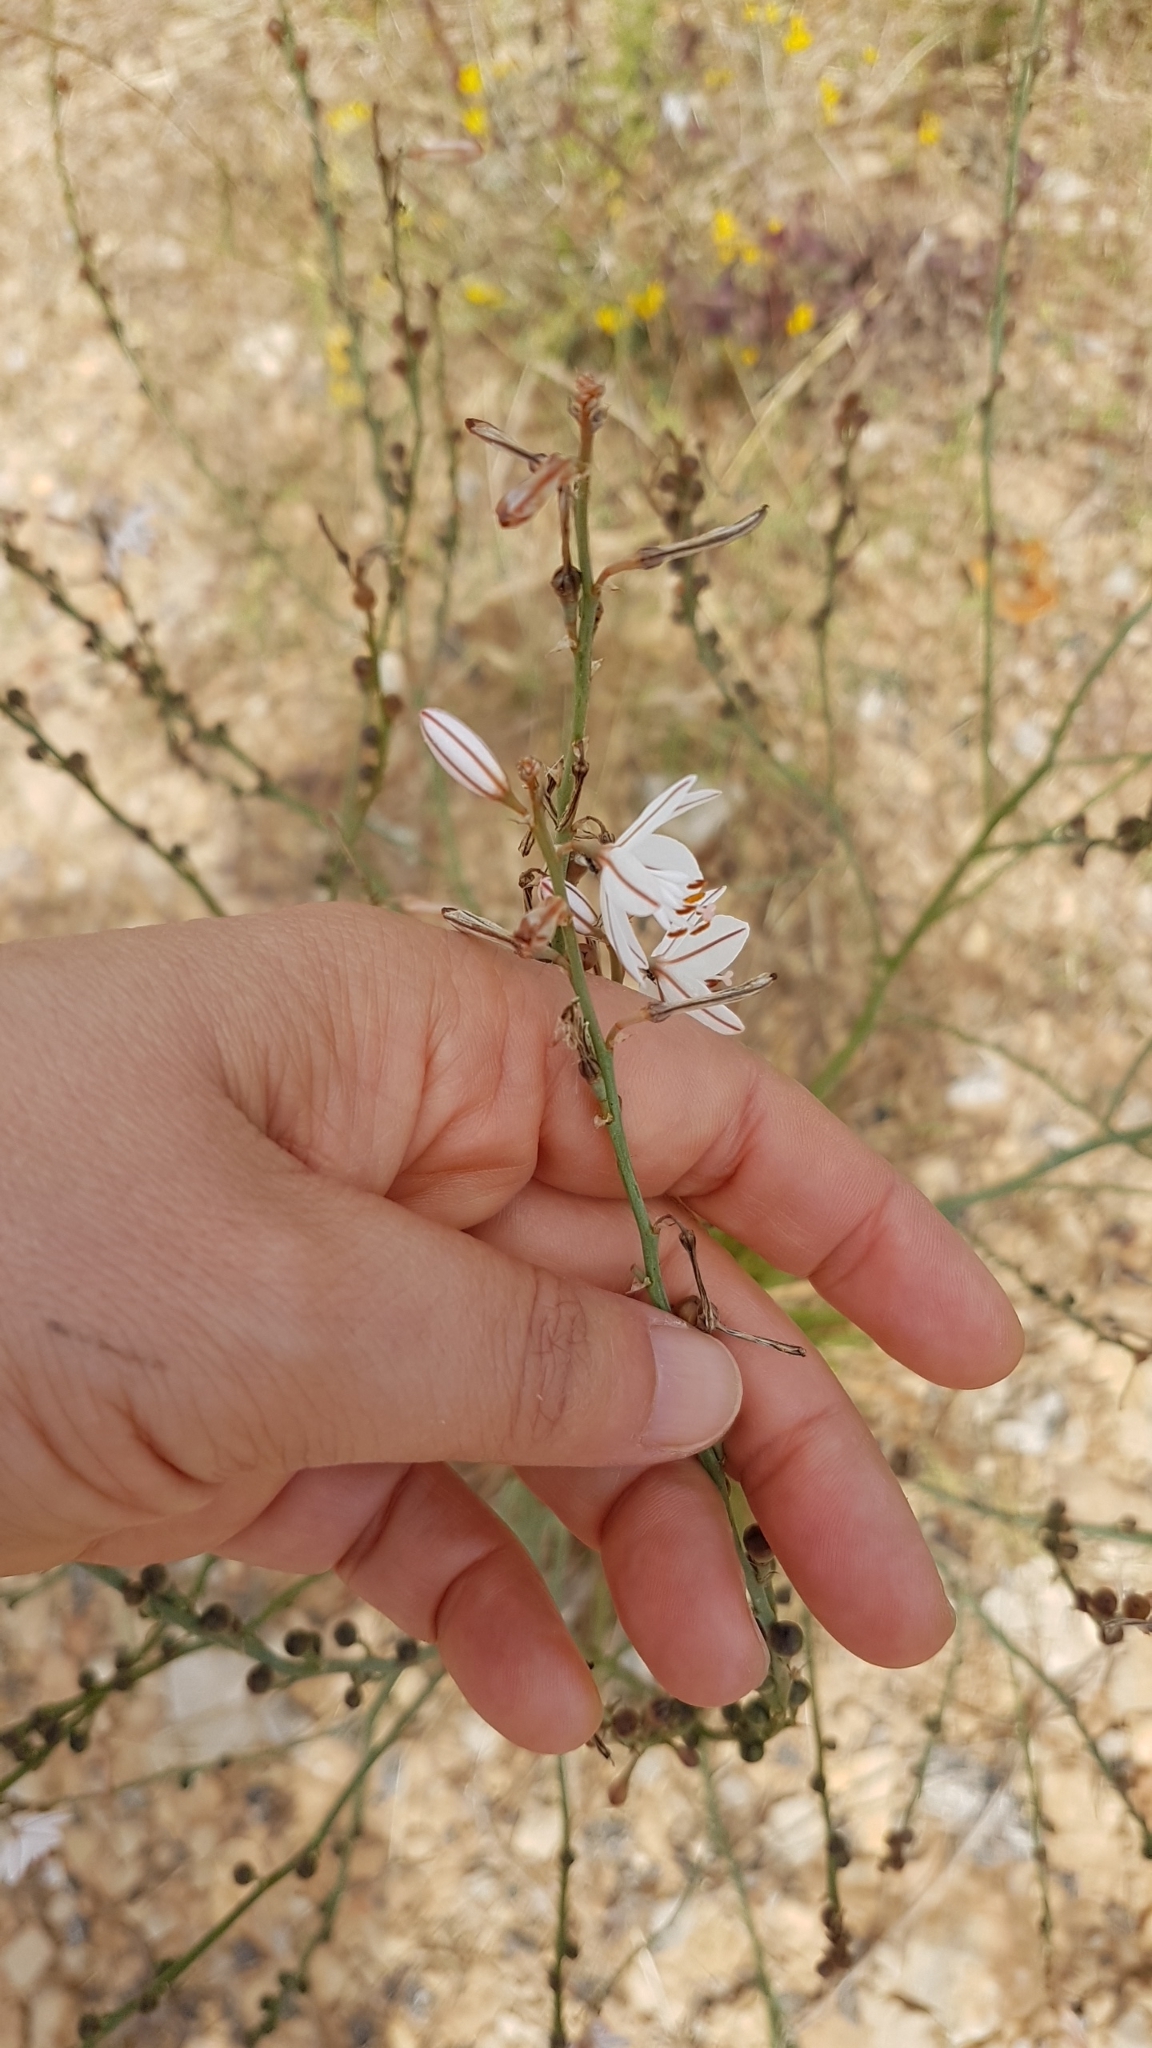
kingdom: Plantae
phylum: Tracheophyta
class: Liliopsida
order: Asparagales
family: Asphodelaceae
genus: Asphodelus
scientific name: Asphodelus fistulosus
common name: Onionweed
